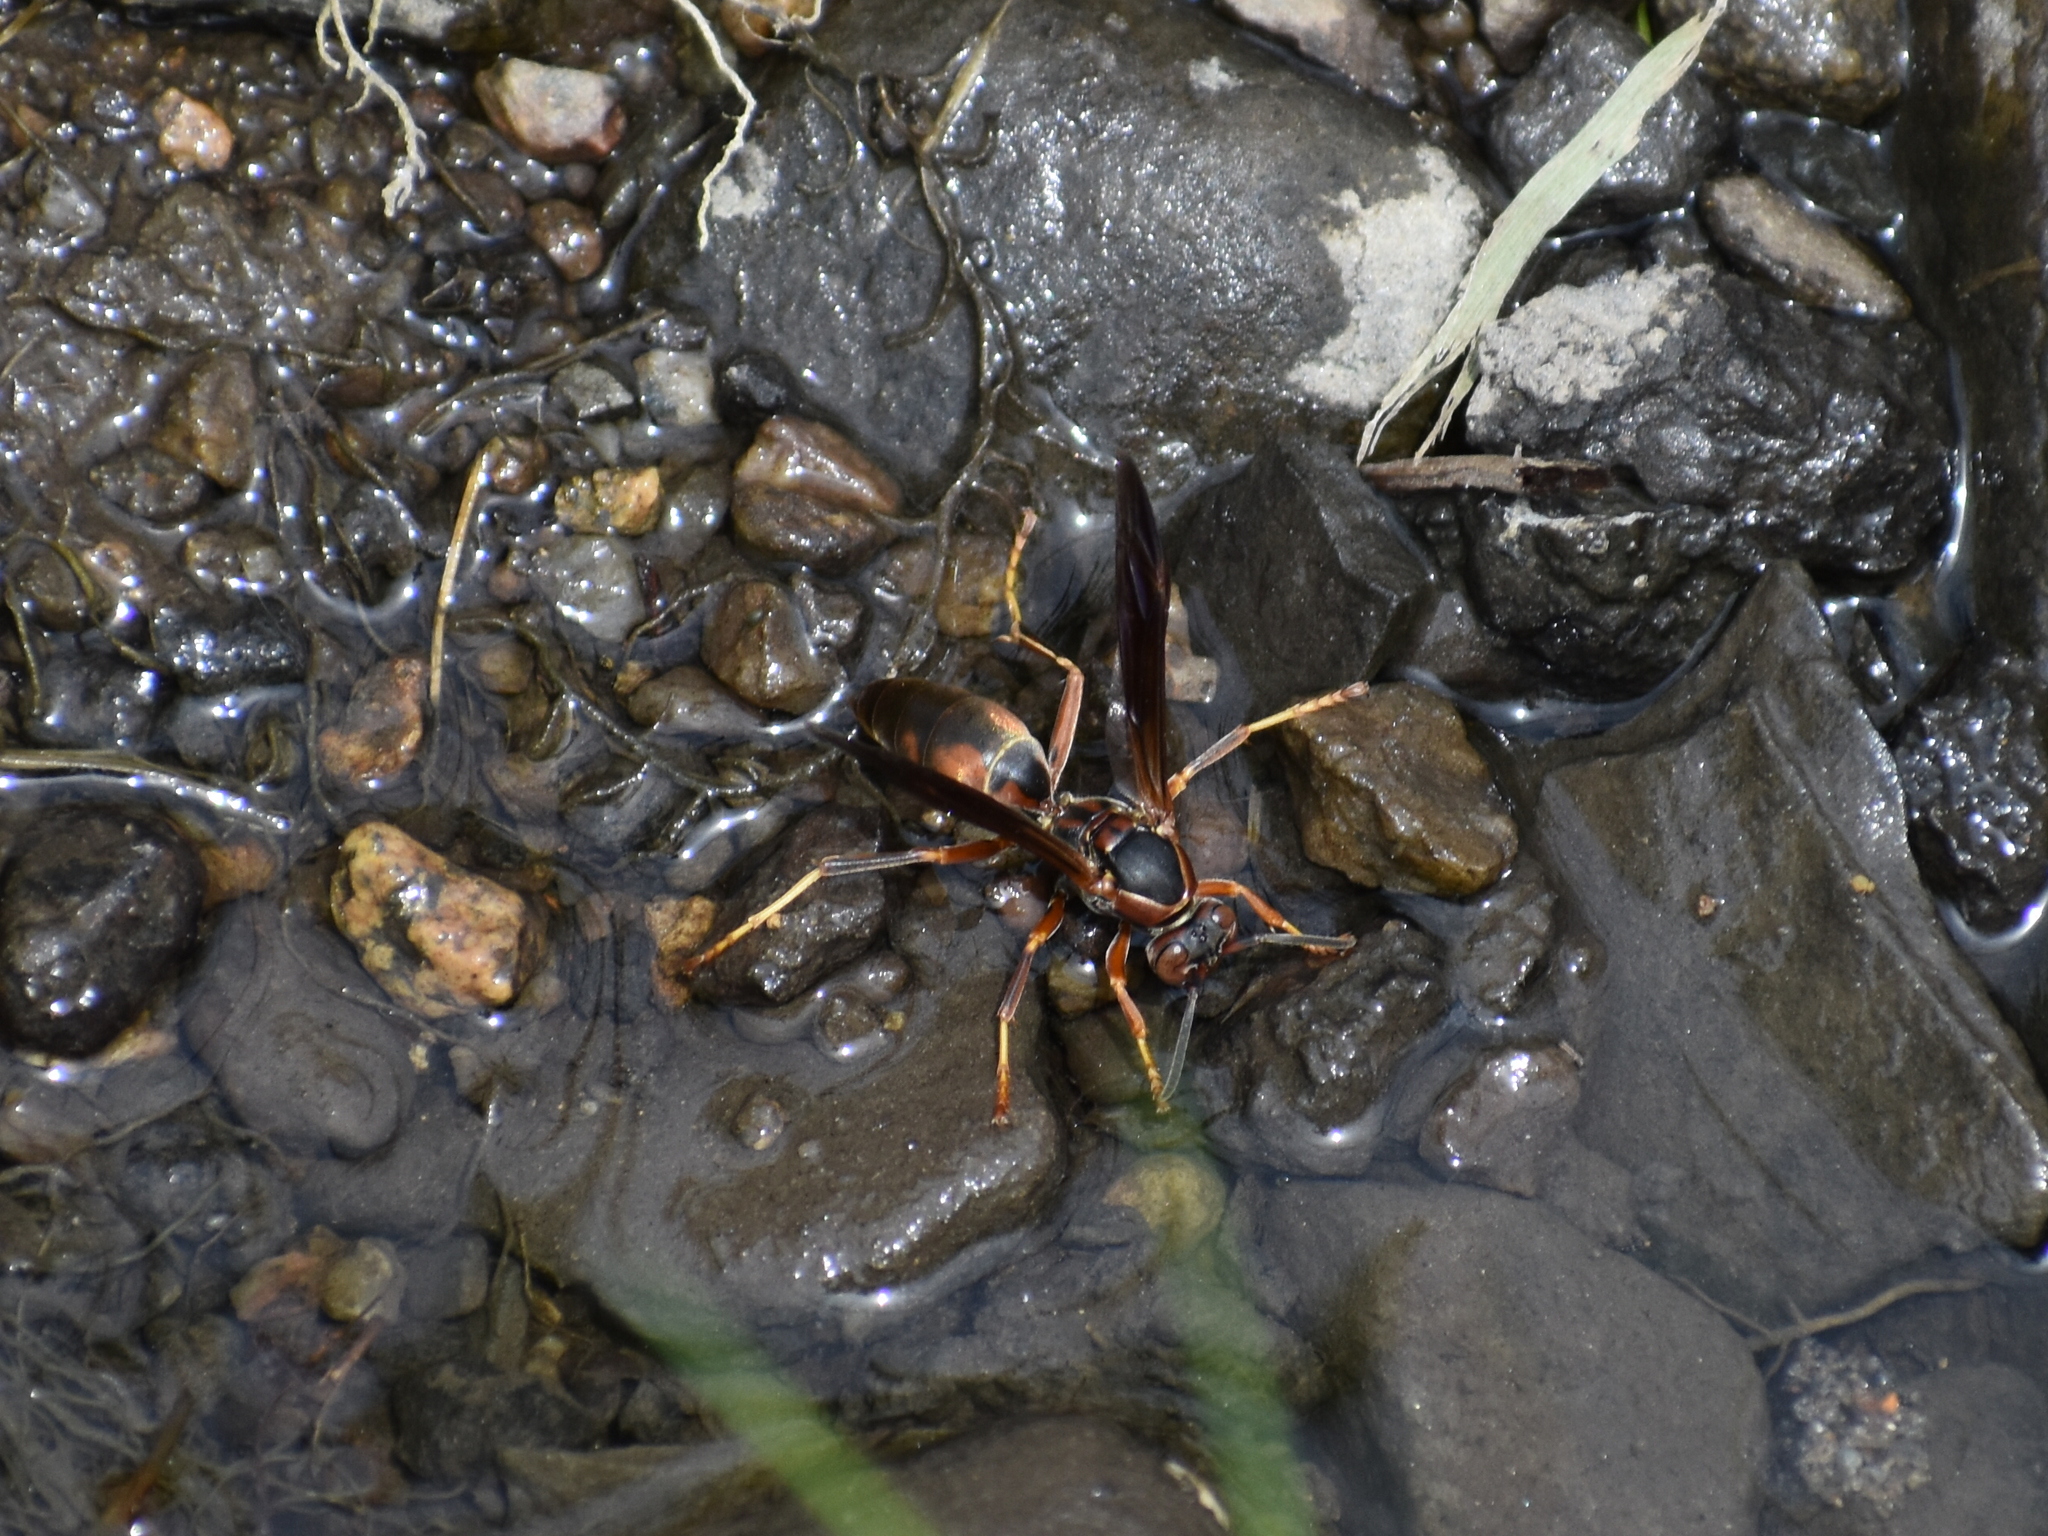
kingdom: Animalia
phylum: Arthropoda
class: Insecta
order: Hymenoptera
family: Eumenidae
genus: Polistes
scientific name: Polistes fuscatus
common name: Dark paper wasp
